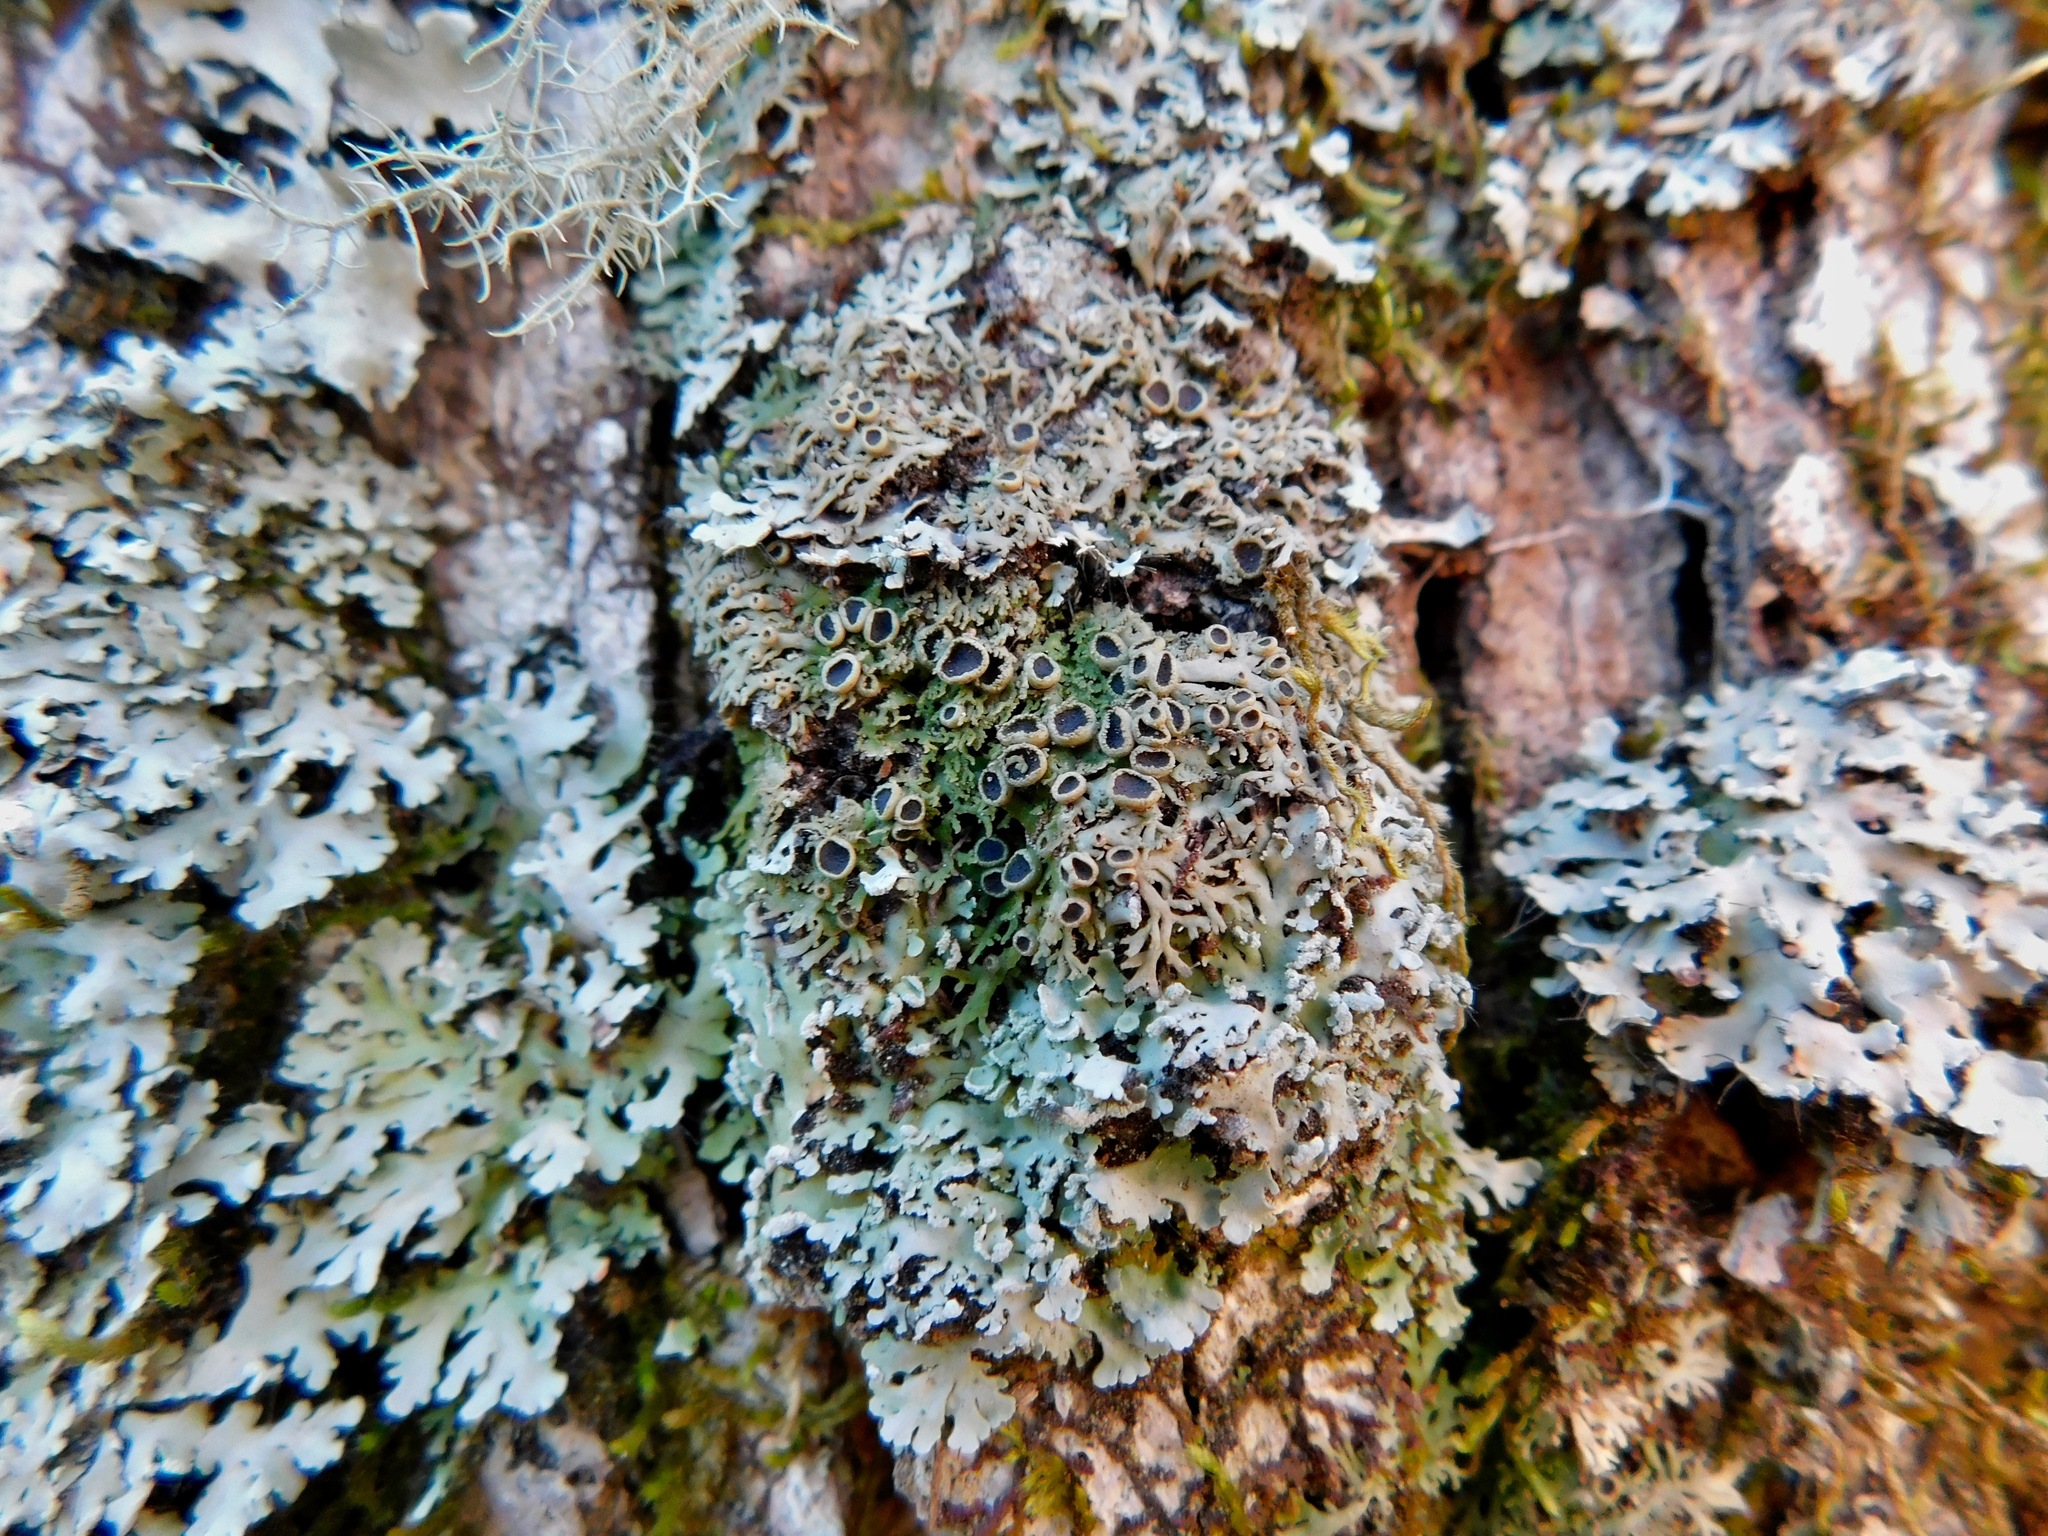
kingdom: Fungi
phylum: Ascomycota
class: Lecanoromycetes
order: Caliciales
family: Physciaceae
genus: Kurokawia
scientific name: Kurokawia palmulata
